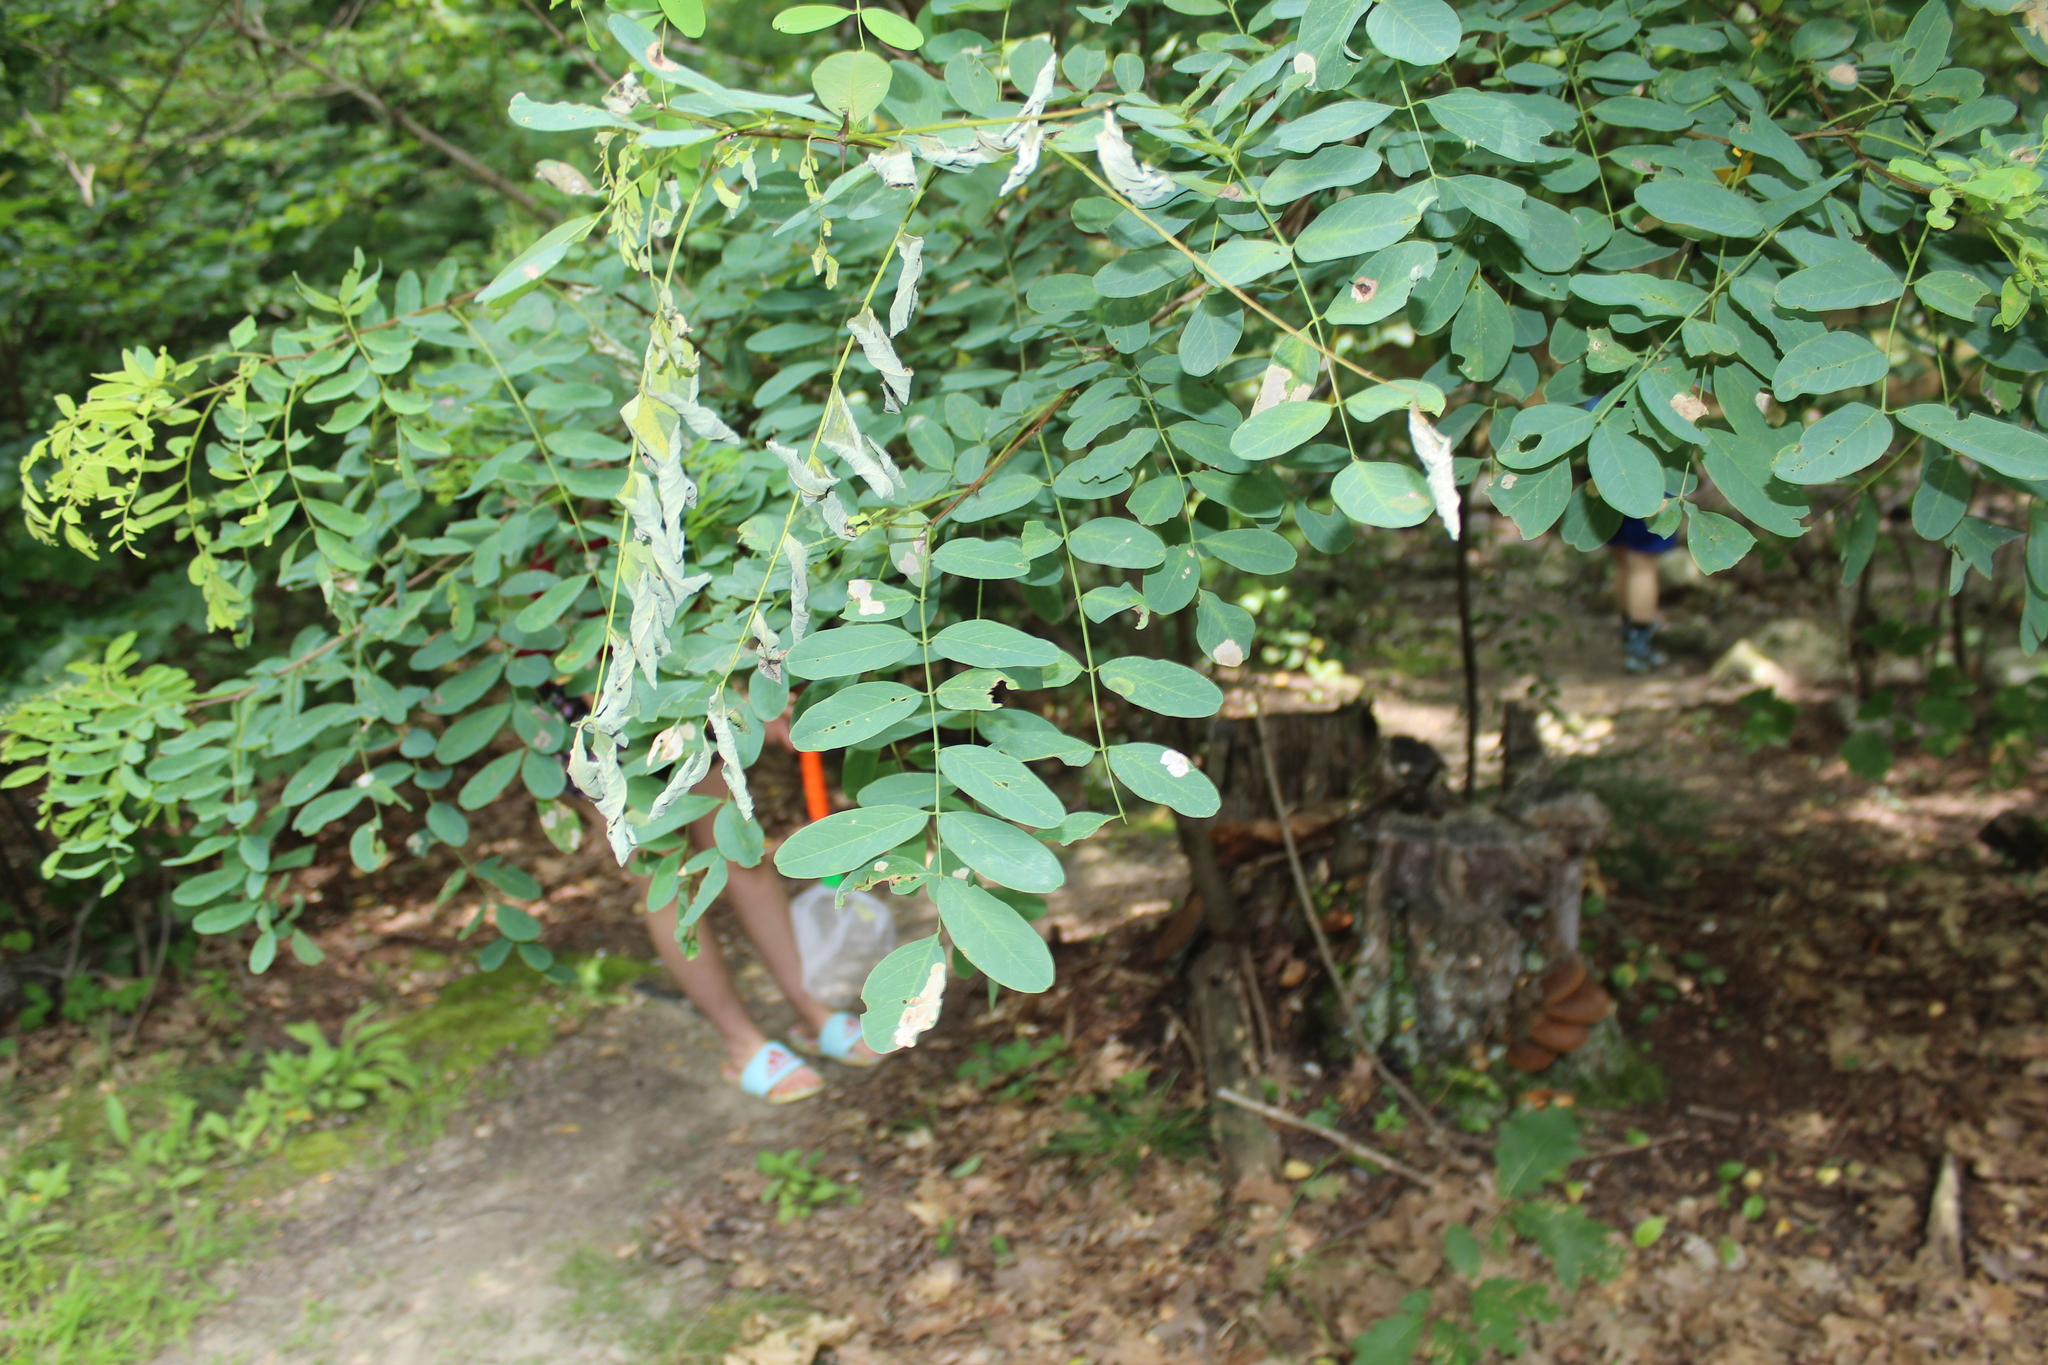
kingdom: Animalia
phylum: Arthropoda
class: Insecta
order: Lepidoptera
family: Gracillariidae
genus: Chrysaster
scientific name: Chrysaster ostensackenella
